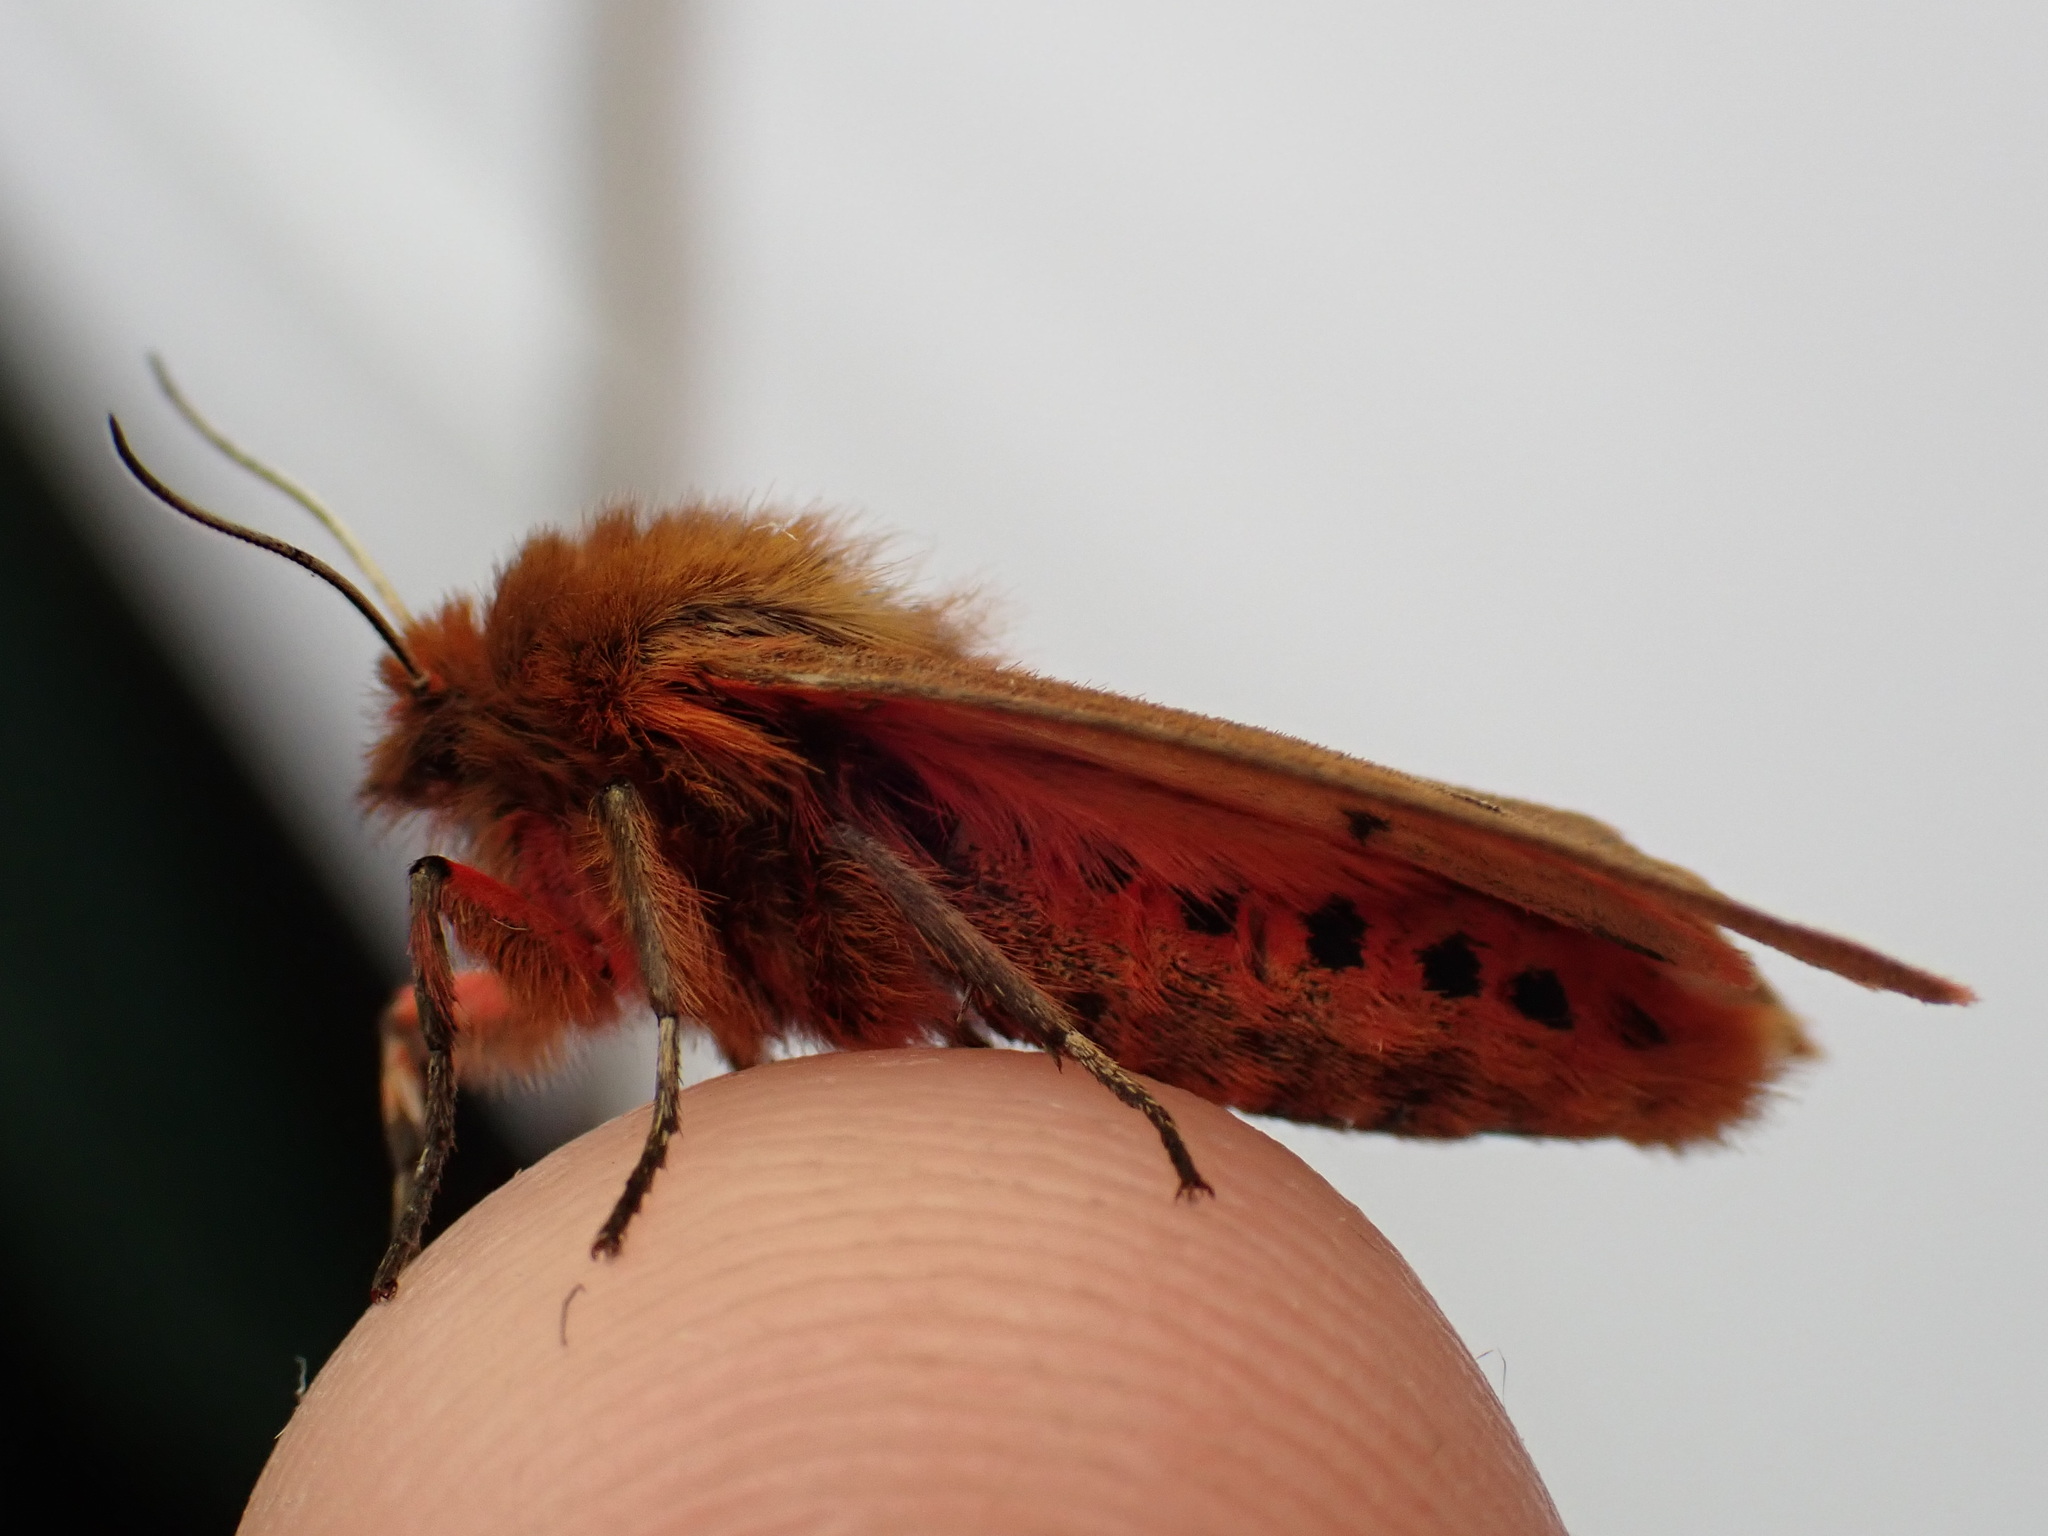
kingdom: Animalia
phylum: Arthropoda
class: Insecta
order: Lepidoptera
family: Erebidae
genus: Phragmatobia
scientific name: Phragmatobia fuliginosa
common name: Ruby tiger
